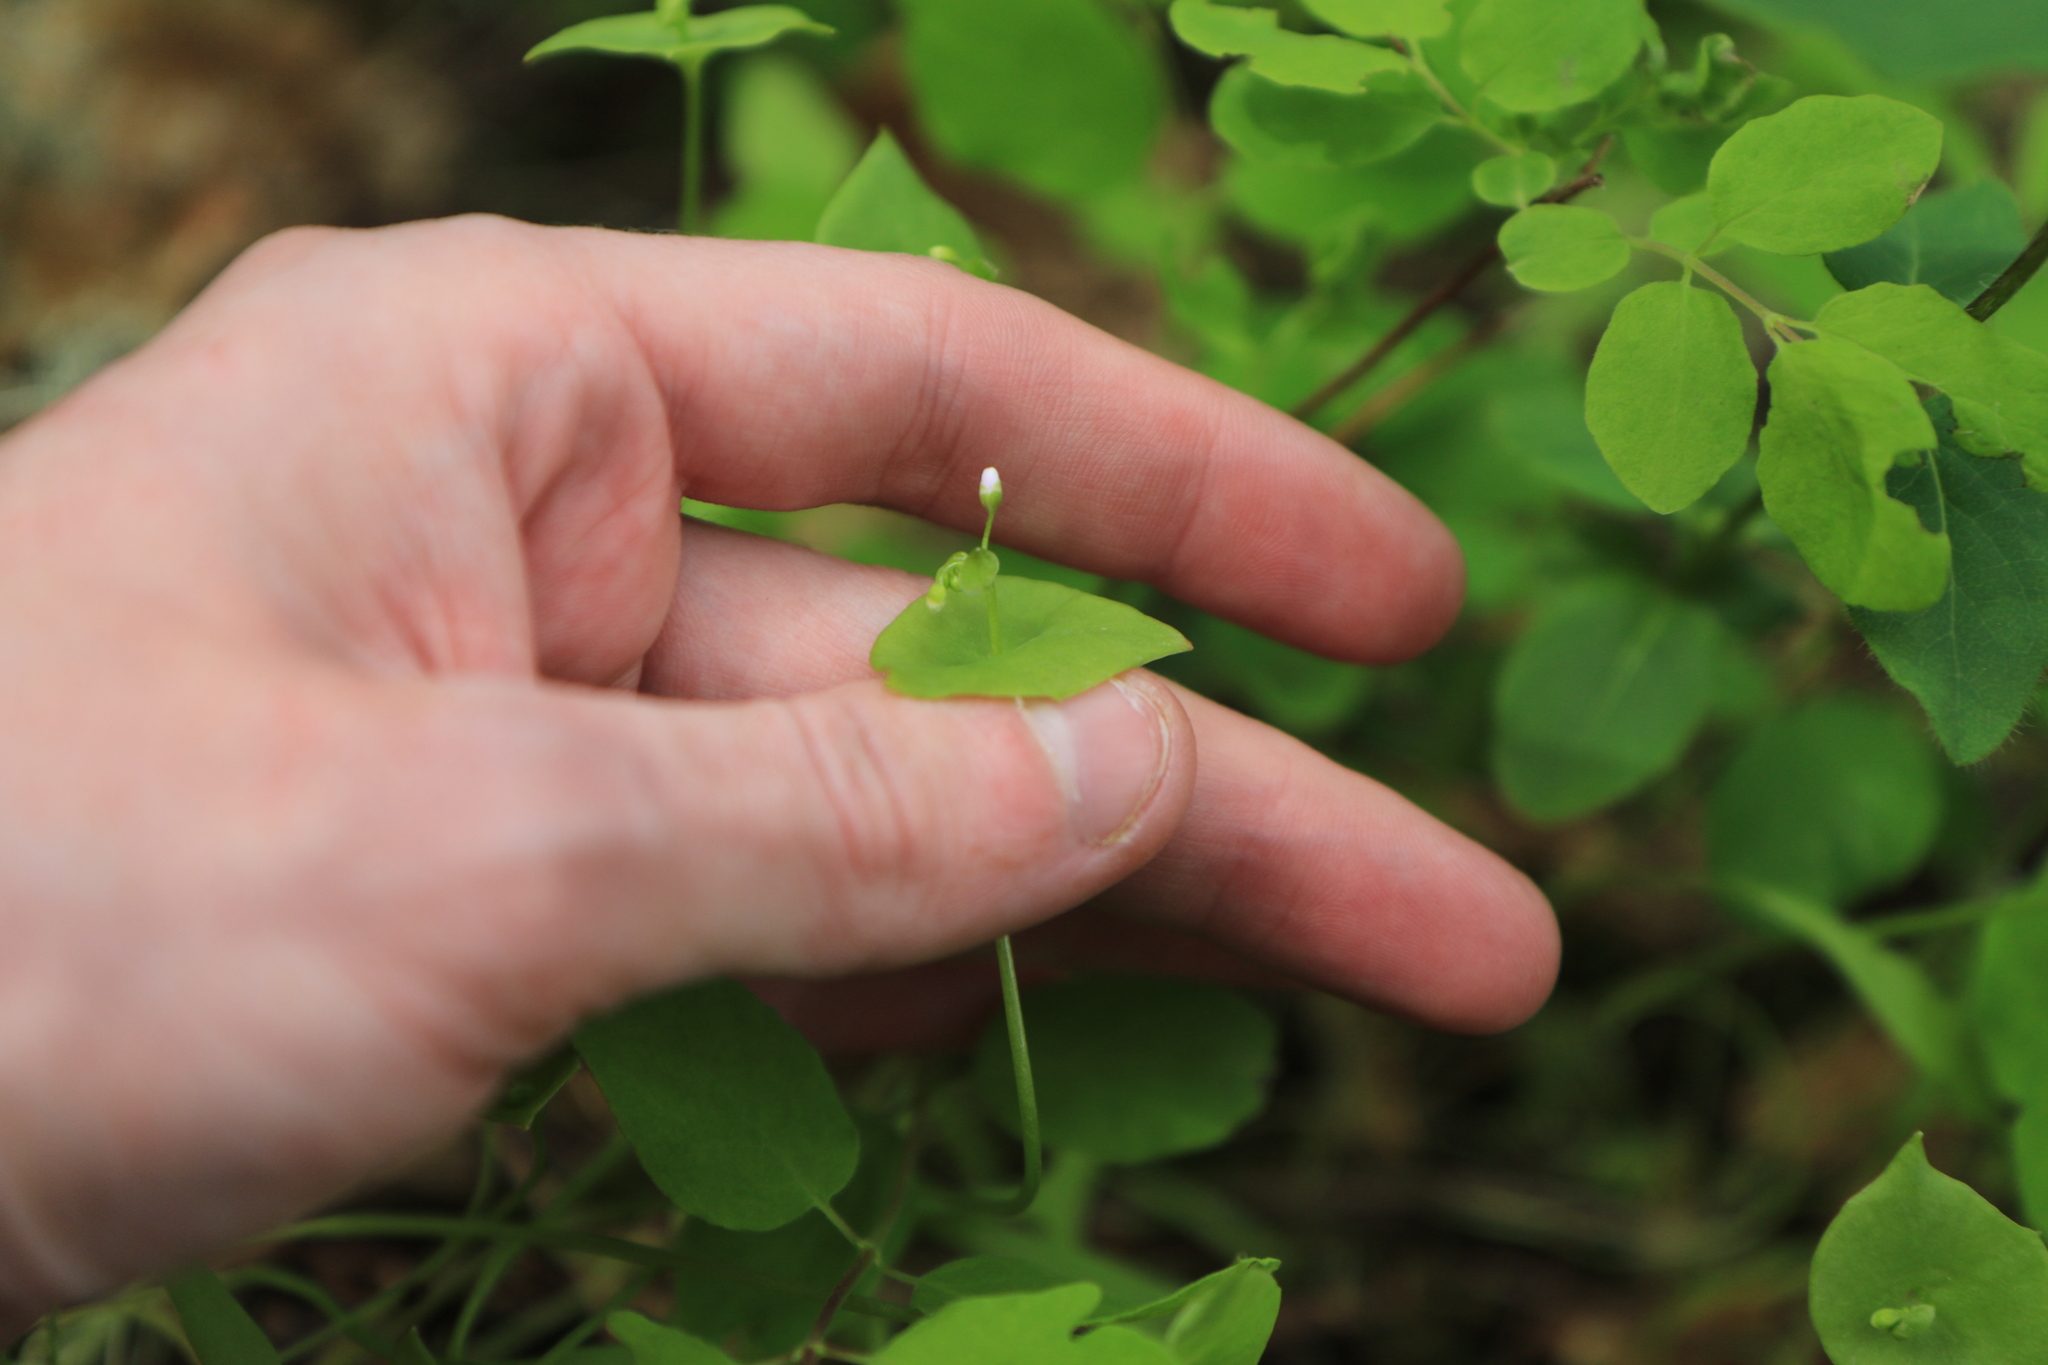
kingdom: Plantae
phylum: Tracheophyta
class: Magnoliopsida
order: Caryophyllales
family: Montiaceae
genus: Claytonia
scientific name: Claytonia parviflora
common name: Indian-lettuce
